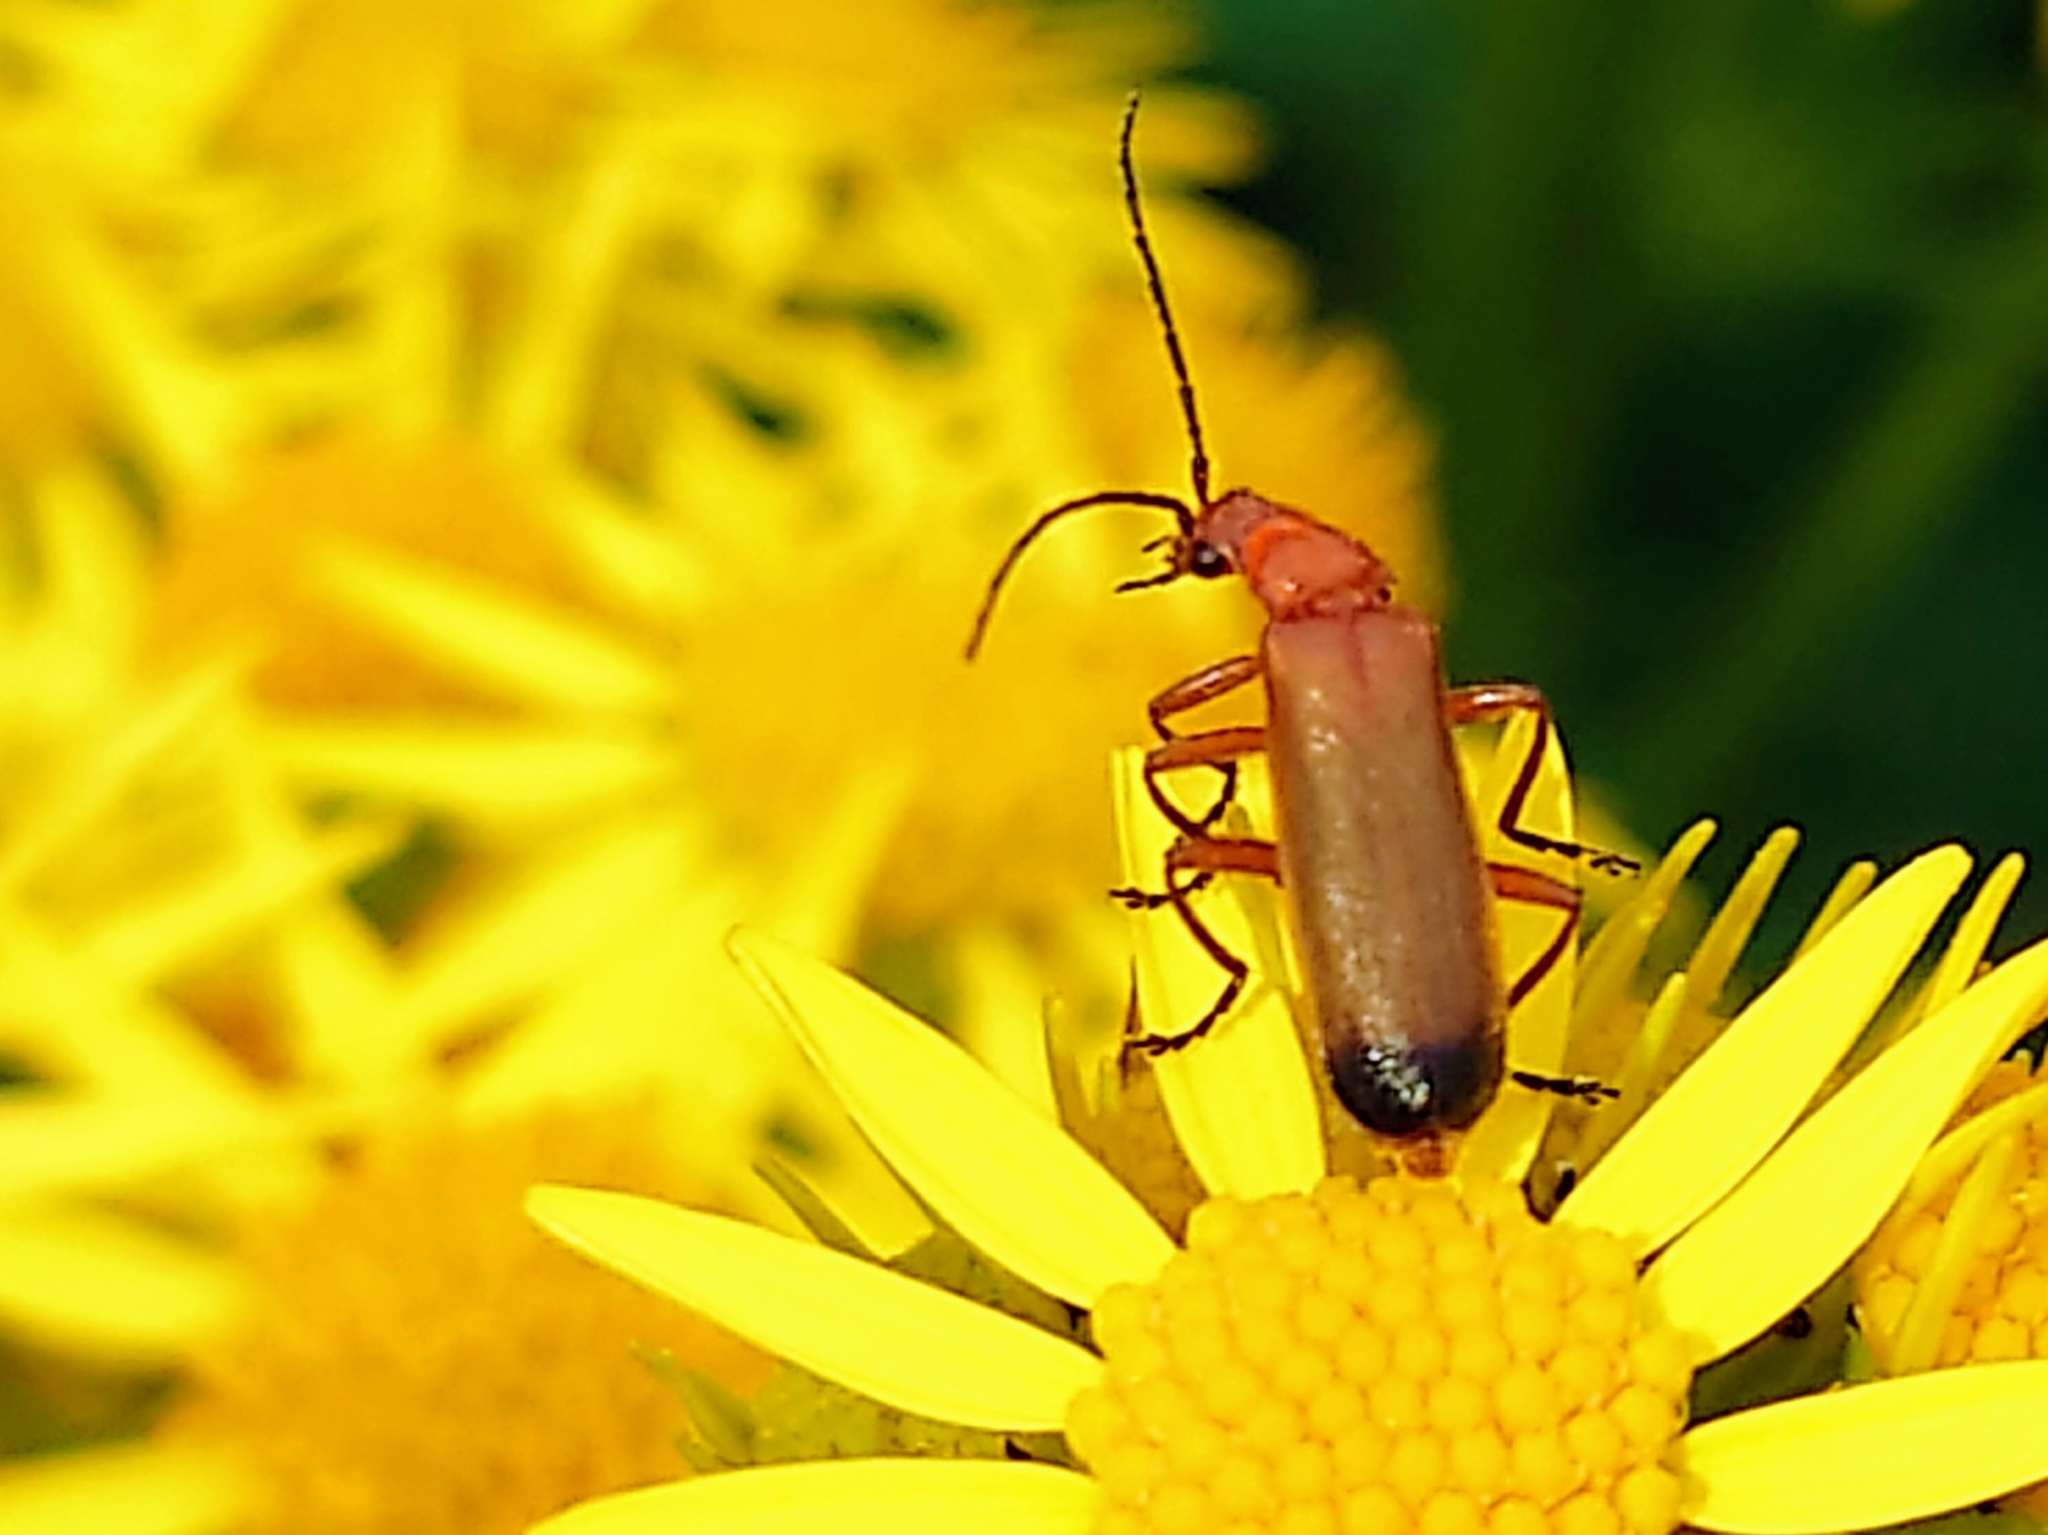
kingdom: Animalia
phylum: Arthropoda
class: Insecta
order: Coleoptera
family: Cantharidae
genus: Rhagonycha
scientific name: Rhagonycha fulva
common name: Common red soldier beetle
